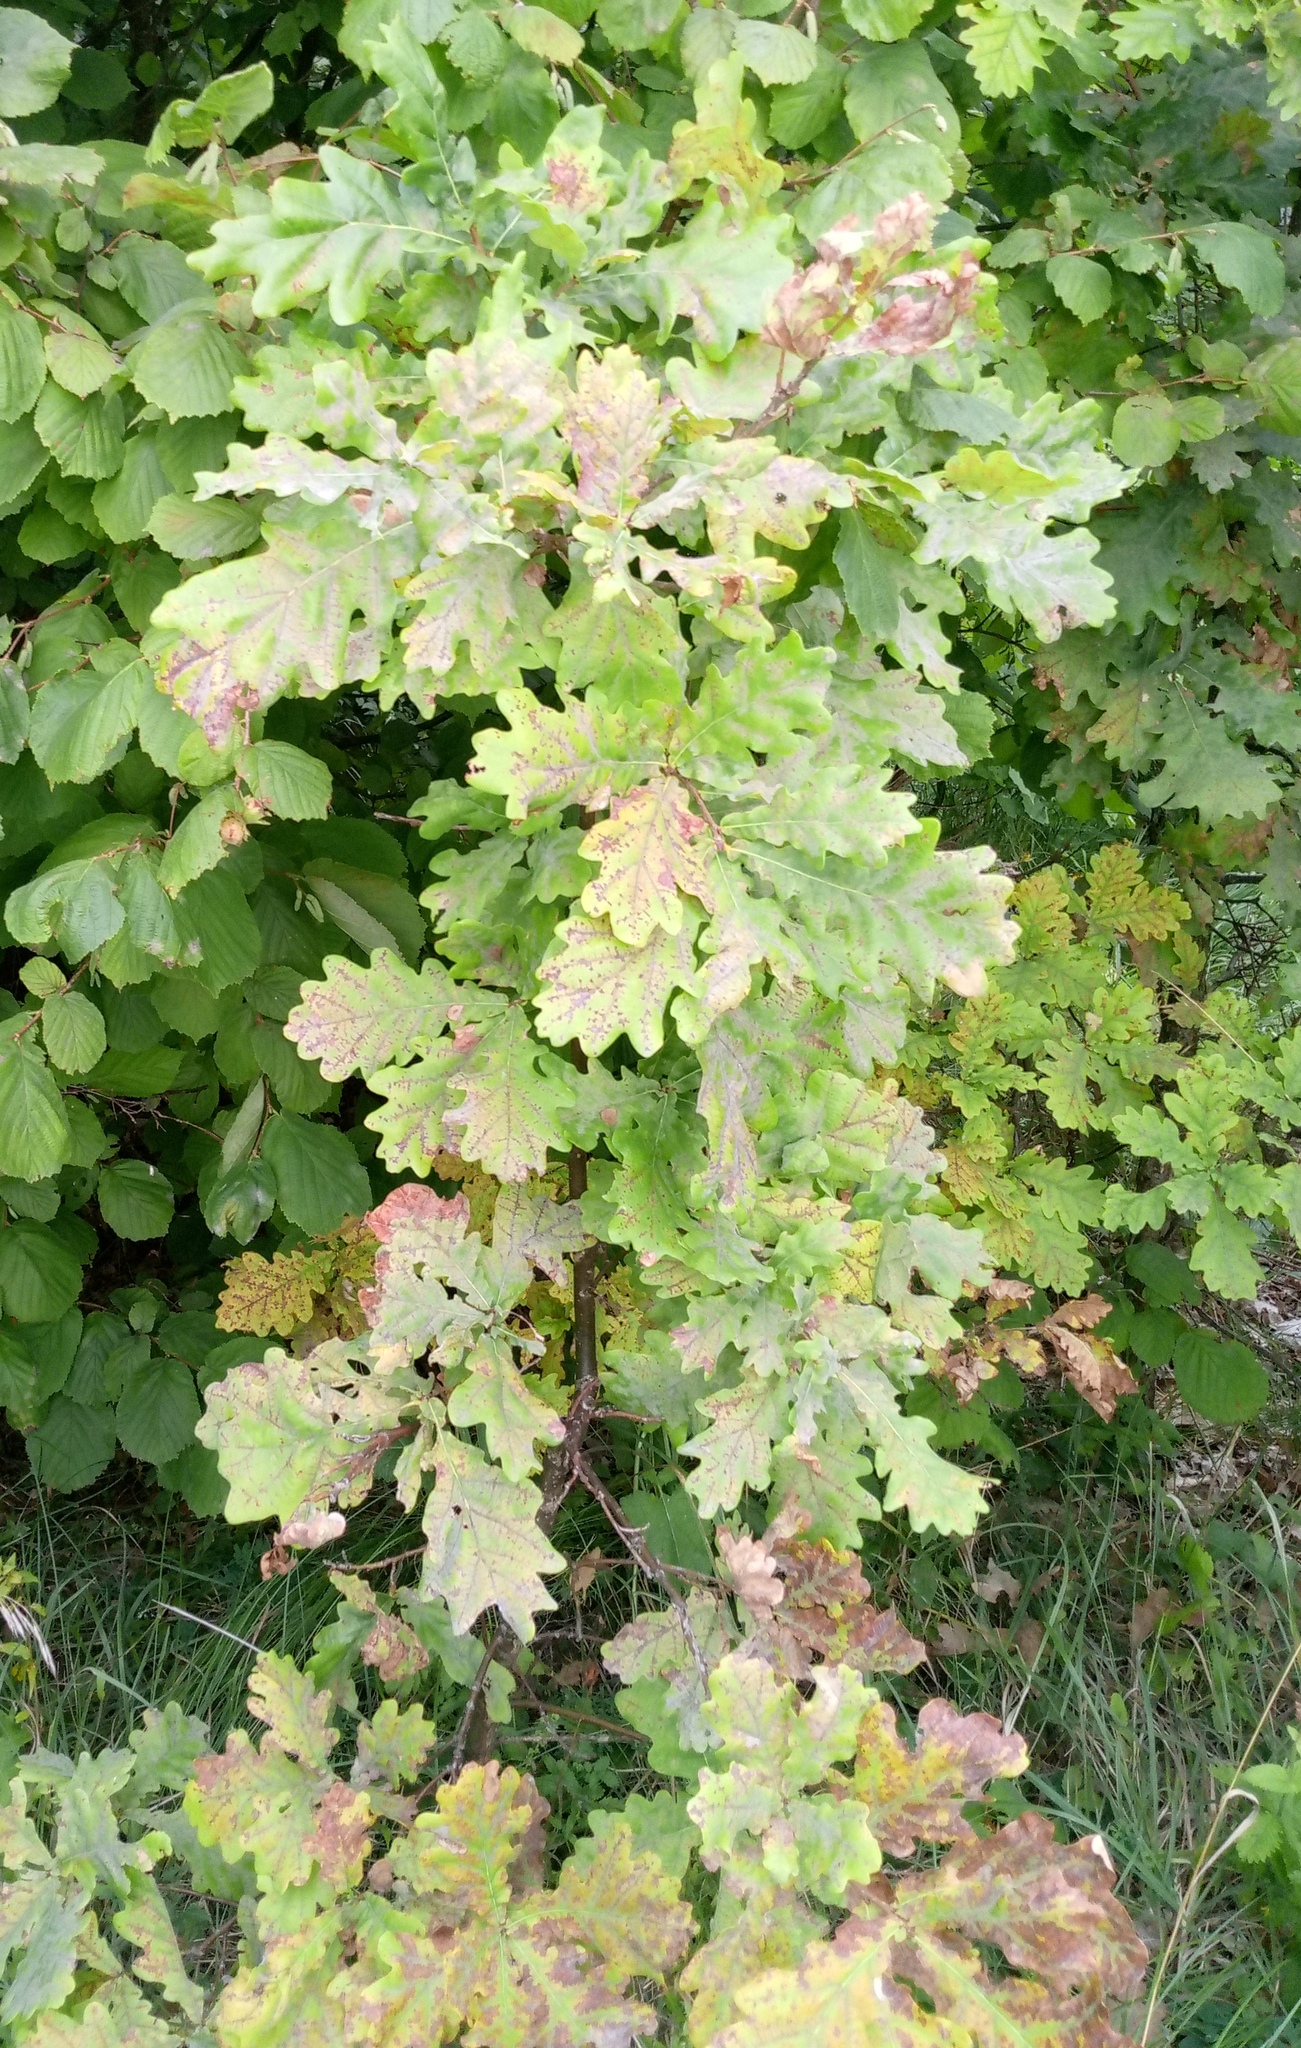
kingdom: Plantae
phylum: Tracheophyta
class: Magnoliopsida
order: Fagales
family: Fagaceae
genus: Quercus
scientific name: Quercus robur
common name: Pedunculate oak
